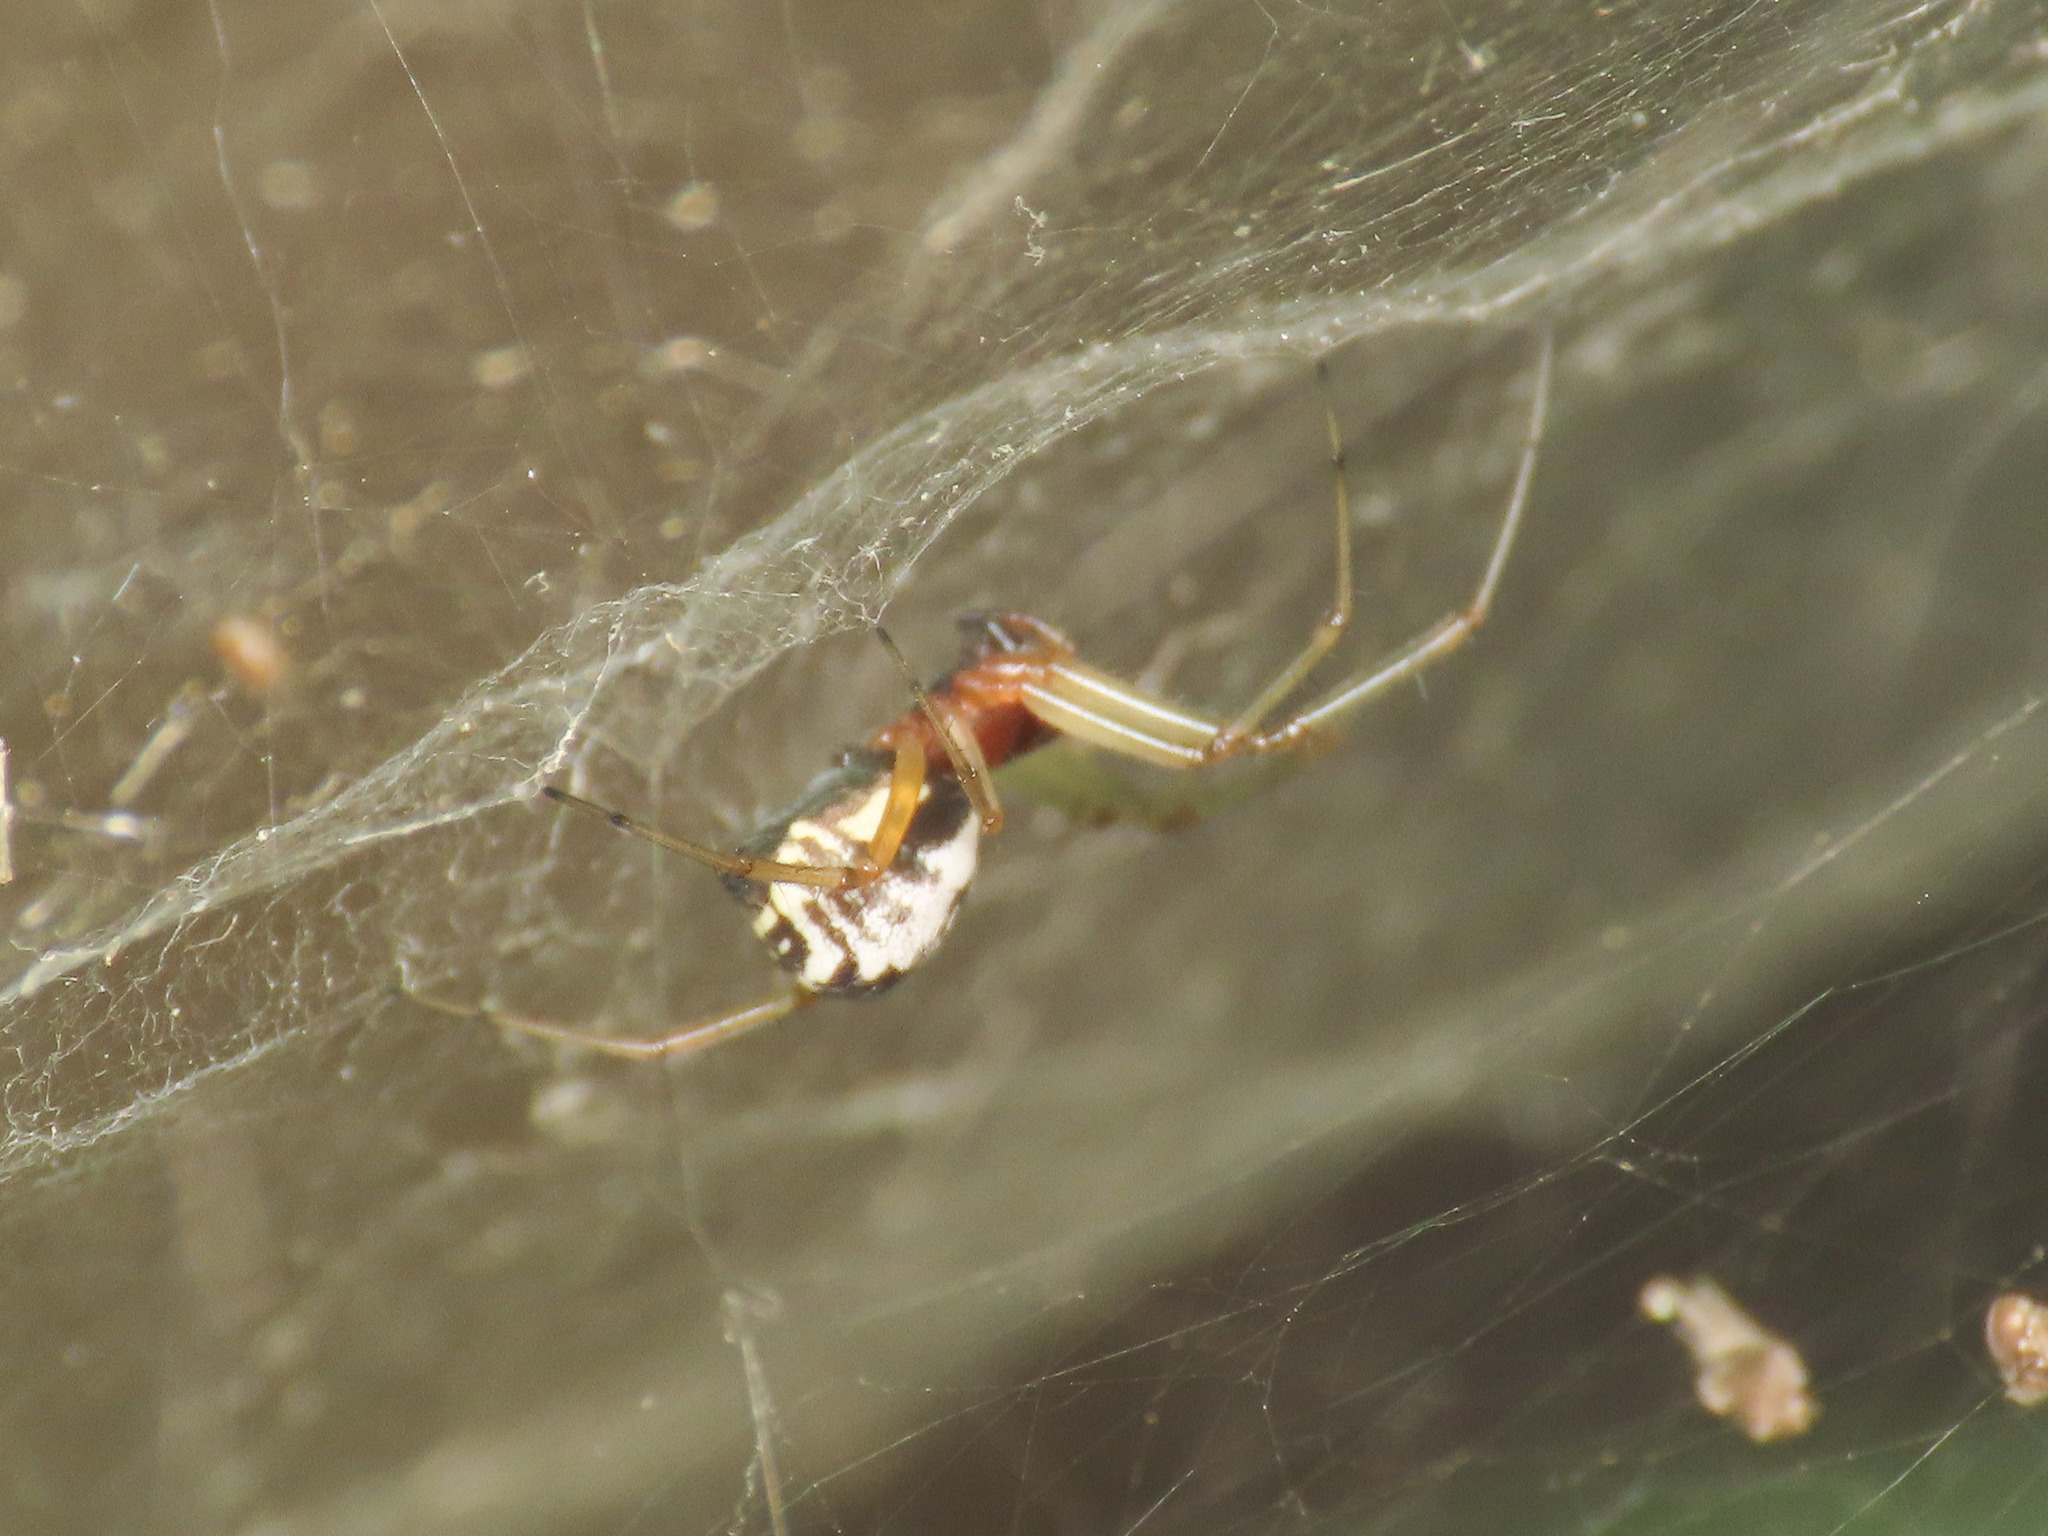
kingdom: Animalia
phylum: Arthropoda
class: Arachnida
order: Araneae
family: Linyphiidae
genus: Frontinellina
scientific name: Frontinellina frutetorum
